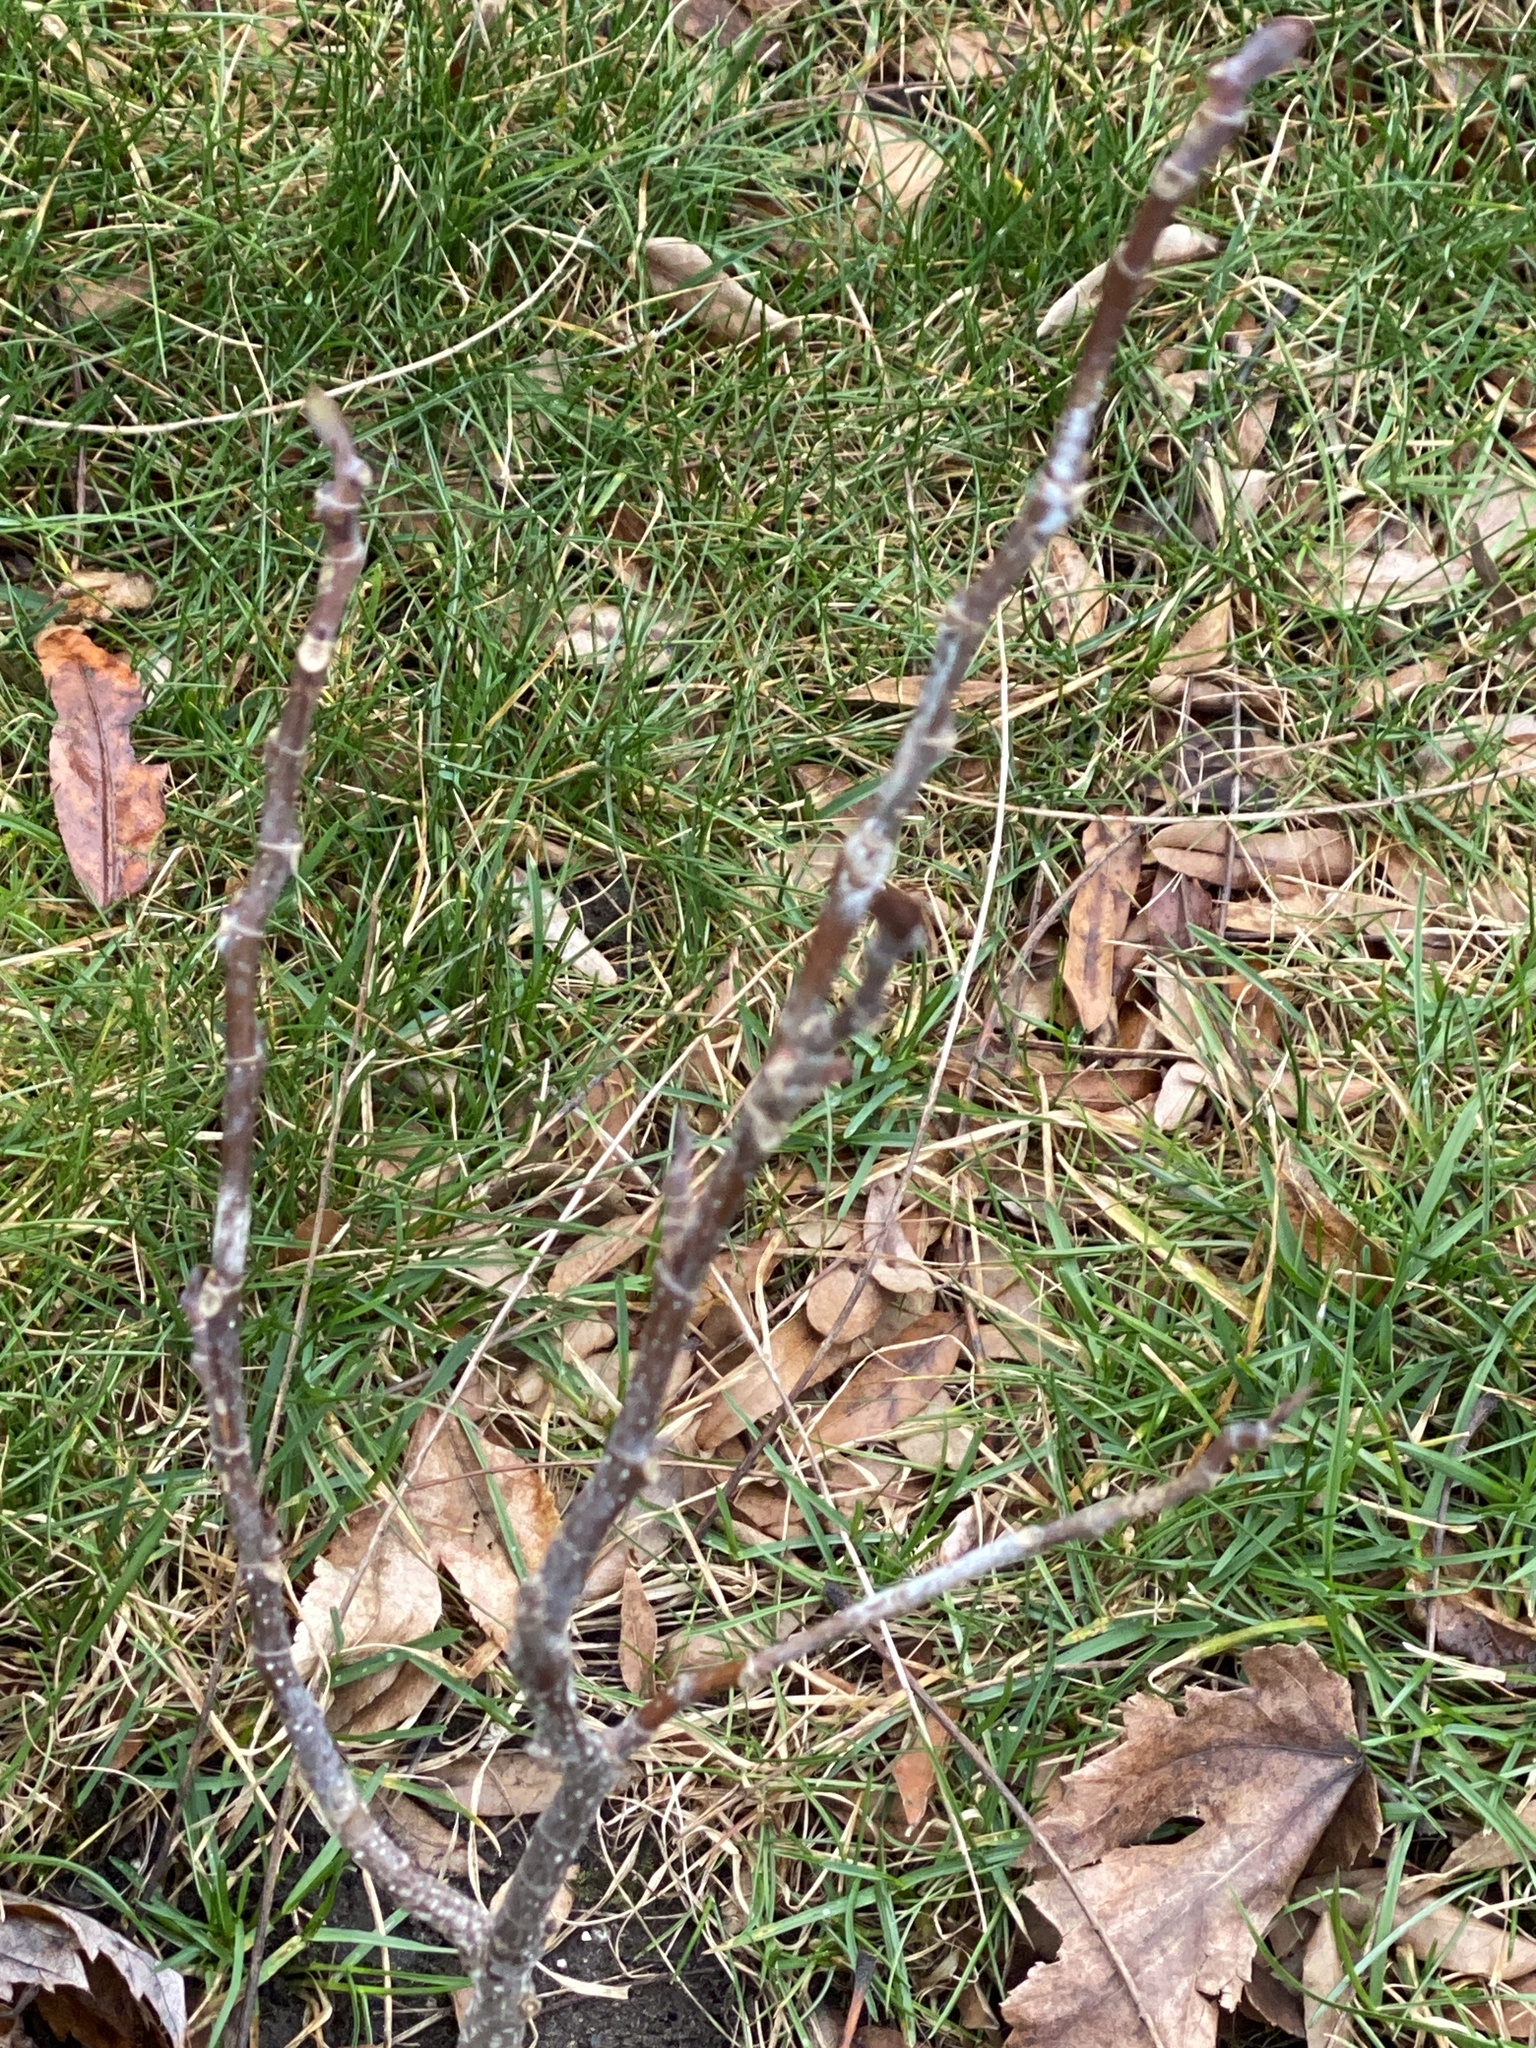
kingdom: Plantae
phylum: Tracheophyta
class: Magnoliopsida
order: Magnoliales
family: Magnoliaceae
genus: Liriodendron
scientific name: Liriodendron tulipifera
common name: Tulip tree
